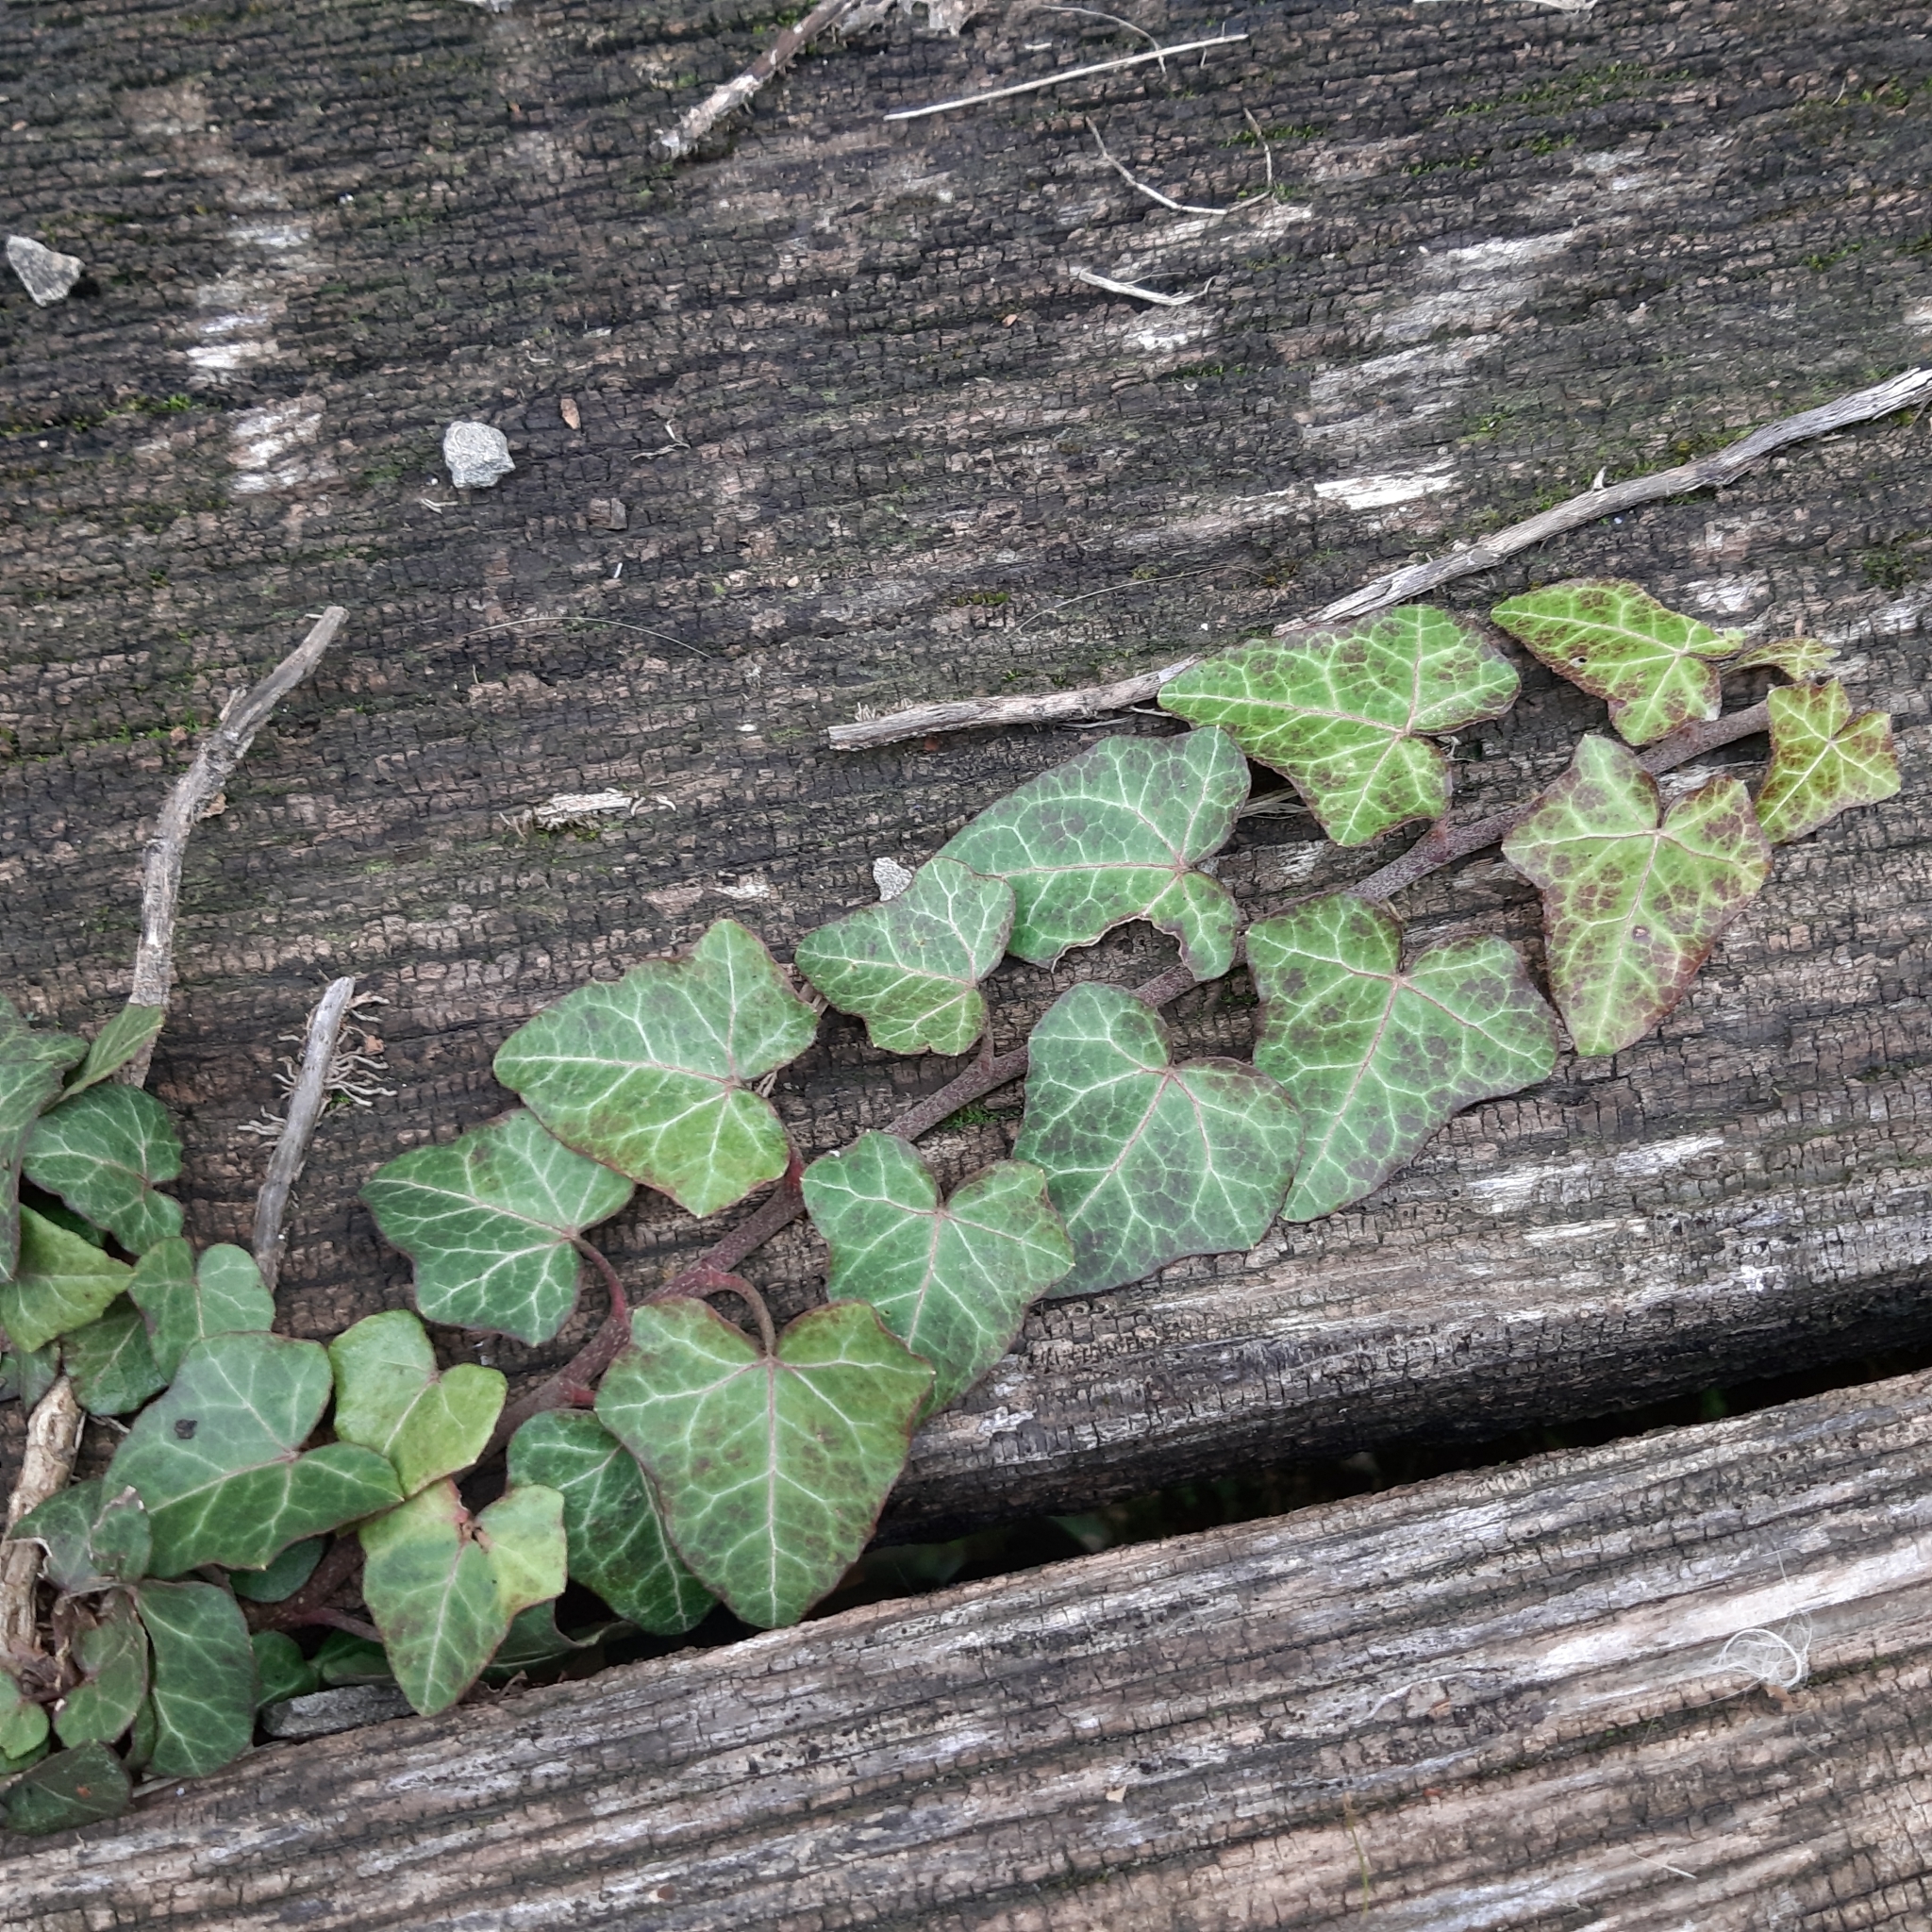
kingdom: Plantae
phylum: Tracheophyta
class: Magnoliopsida
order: Apiales
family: Araliaceae
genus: Hedera
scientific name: Hedera helix
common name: Ivy
